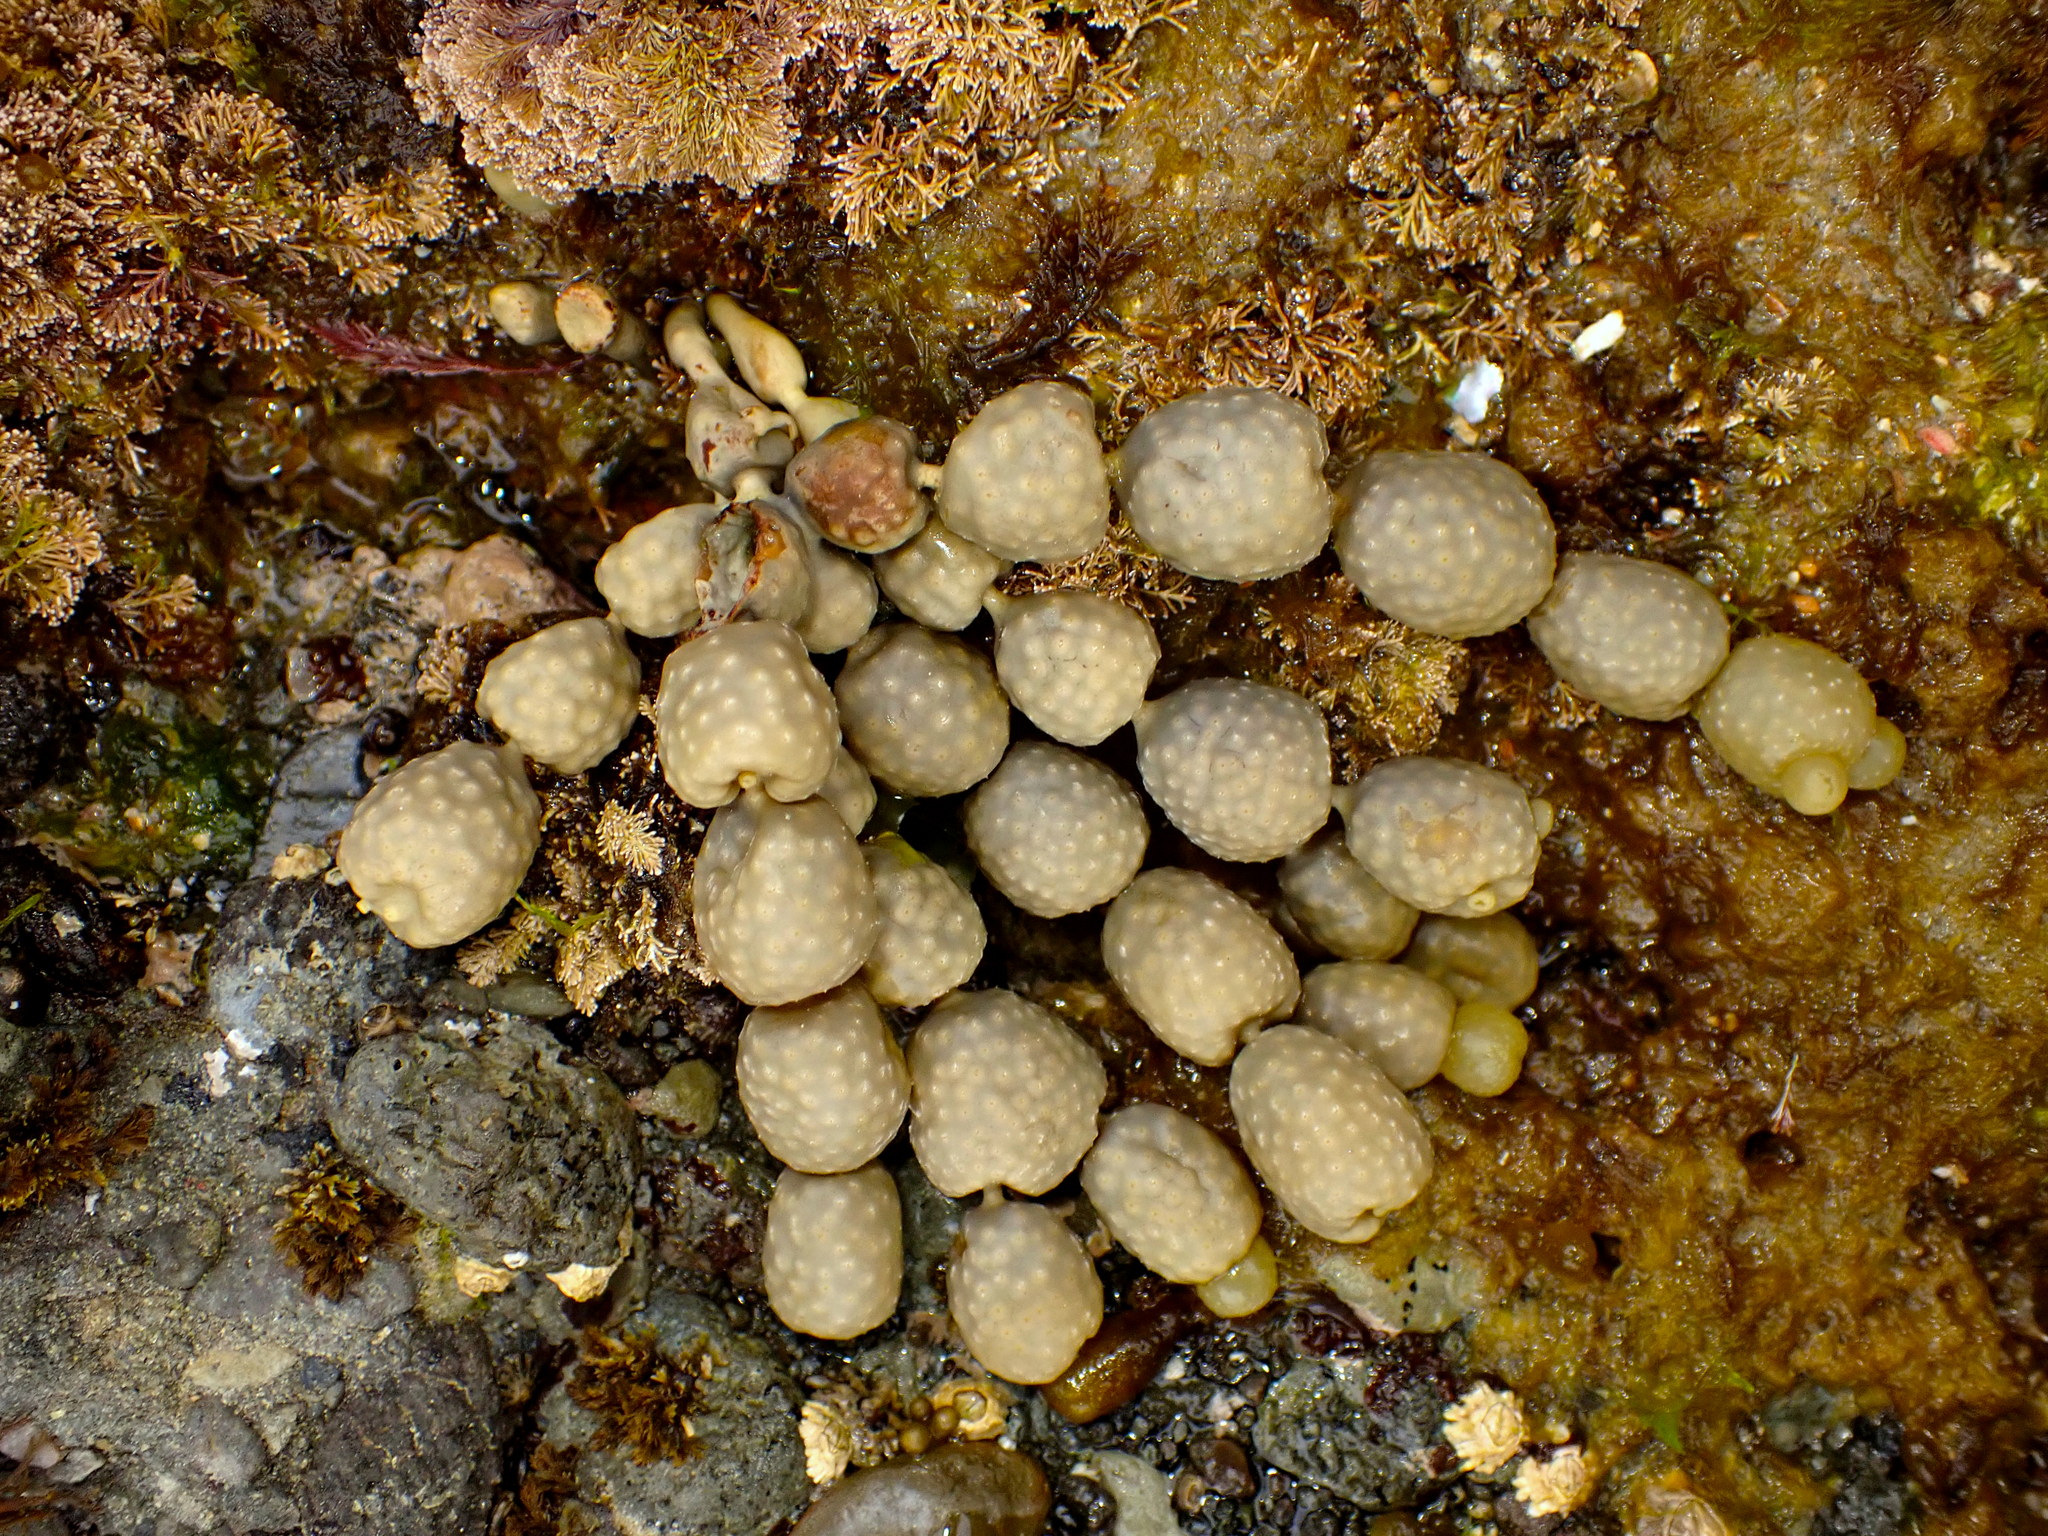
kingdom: Chromista
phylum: Ochrophyta
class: Phaeophyceae
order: Fucales
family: Hormosiraceae
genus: Hormosira
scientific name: Hormosira banksii
